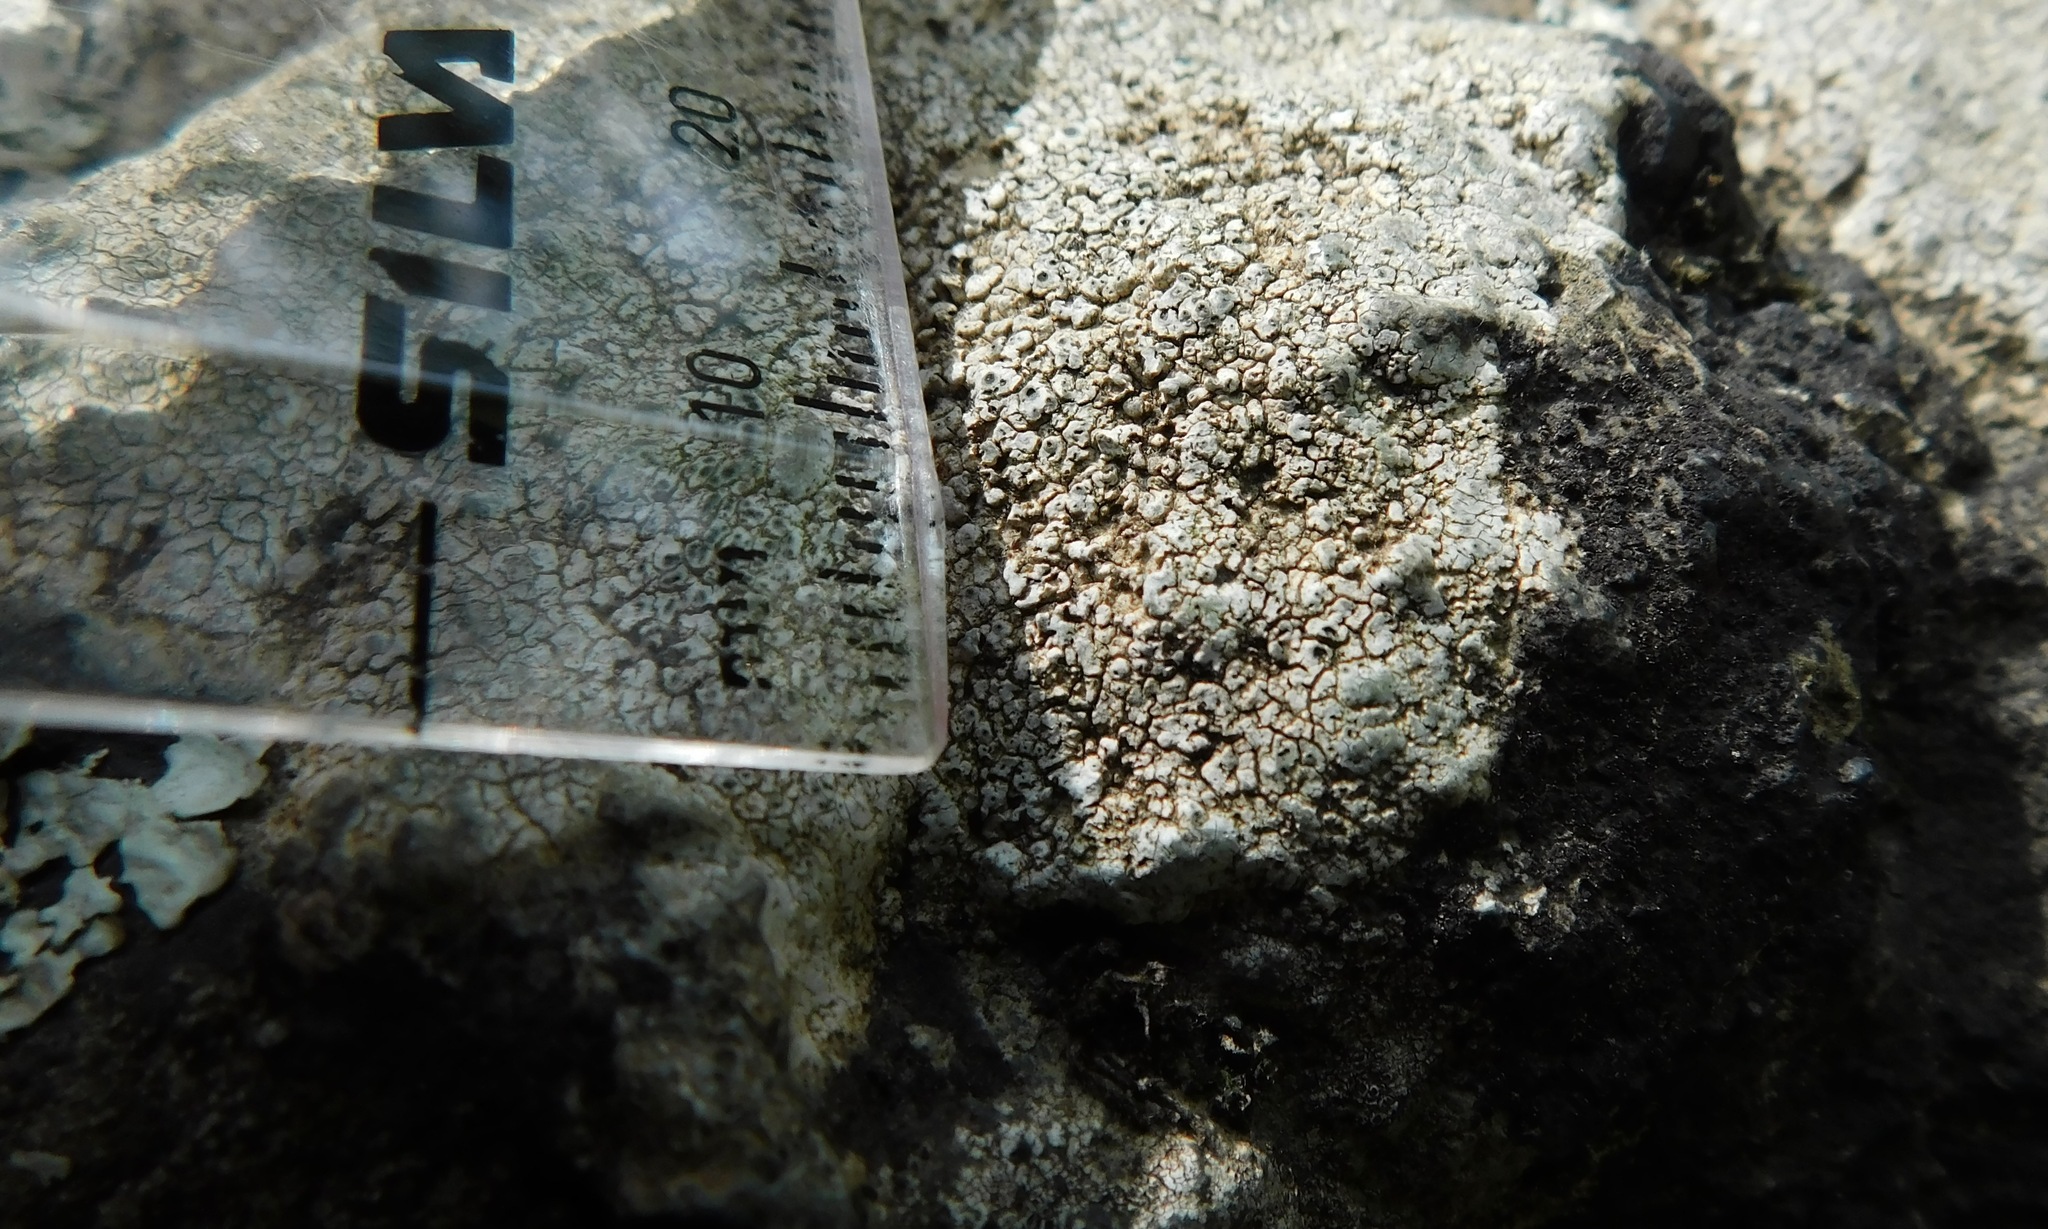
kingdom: Fungi
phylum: Ascomycota
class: Lecanoromycetes
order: Pertusariales
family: Megasporaceae
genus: Aspicilia
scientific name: Aspicilia aquatica
